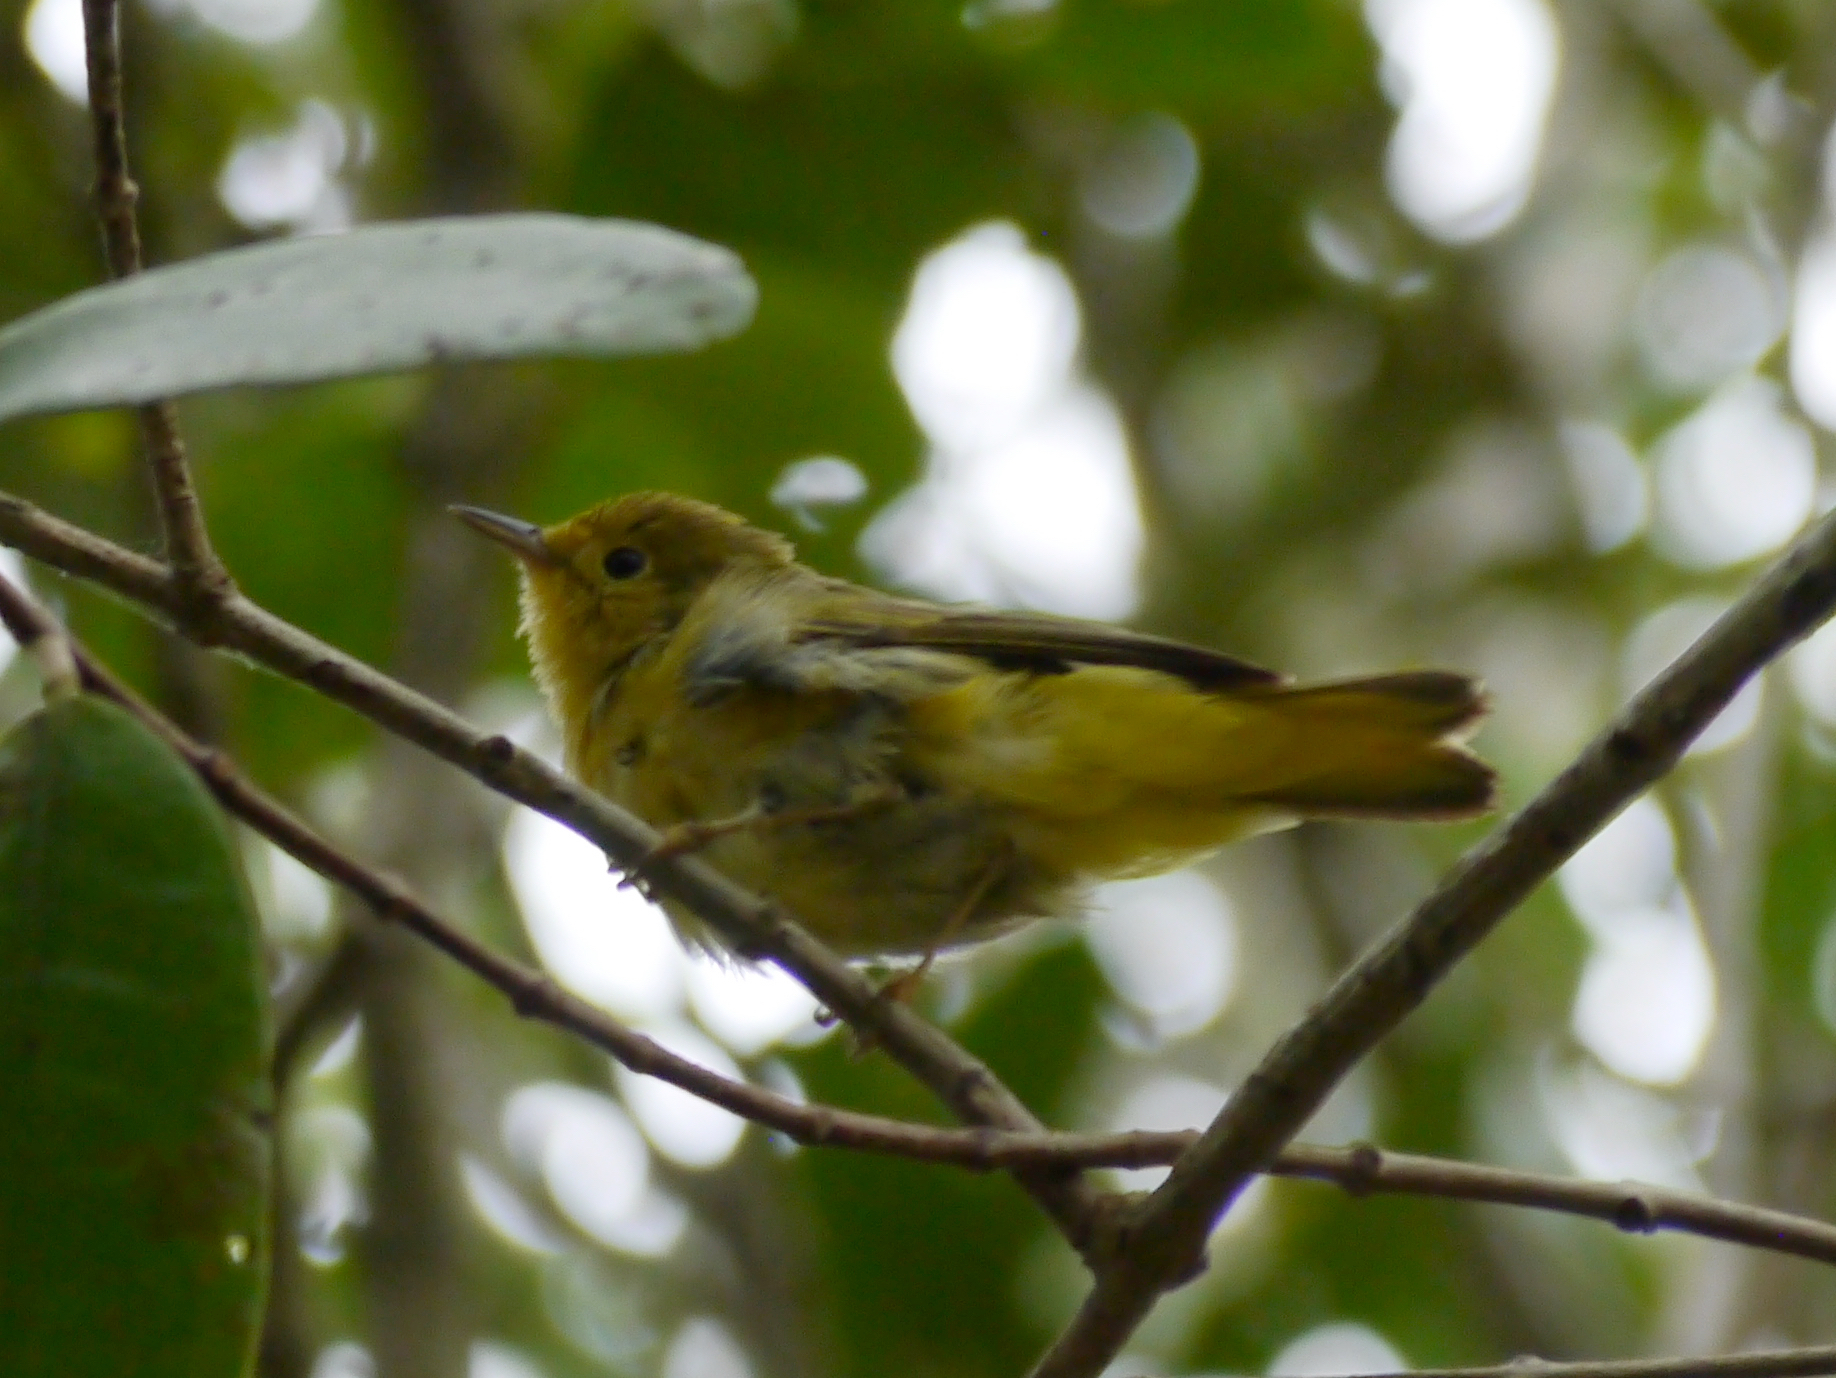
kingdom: Animalia
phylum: Chordata
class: Aves
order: Passeriformes
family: Parulidae
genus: Setophaga
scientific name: Setophaga petechia
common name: Yellow warbler
